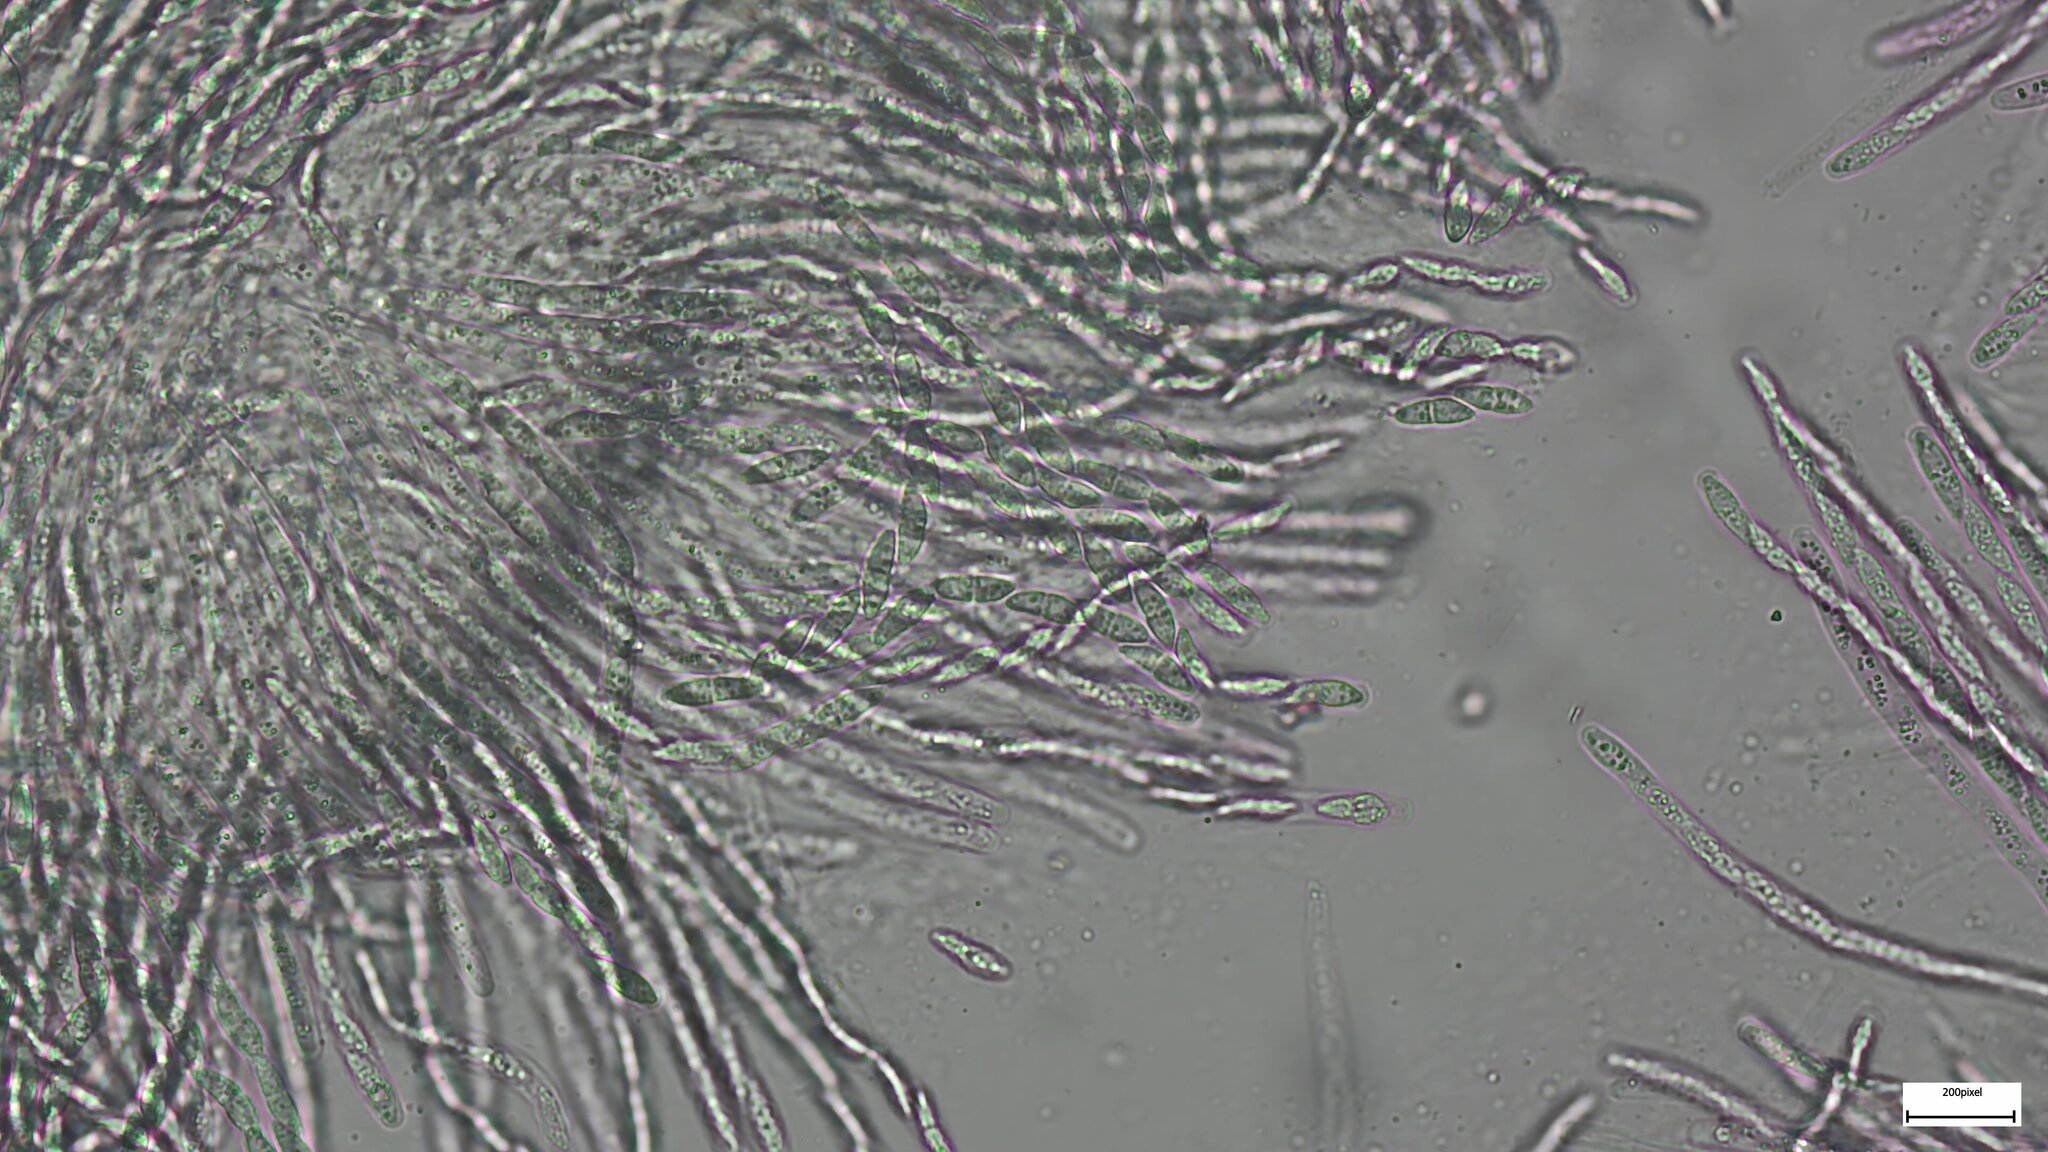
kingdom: Fungi
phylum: Ascomycota
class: Sordariomycetes
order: Hypocreales
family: Bionectriaceae
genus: Nectriopsis
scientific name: Nectriopsis tremellicola
